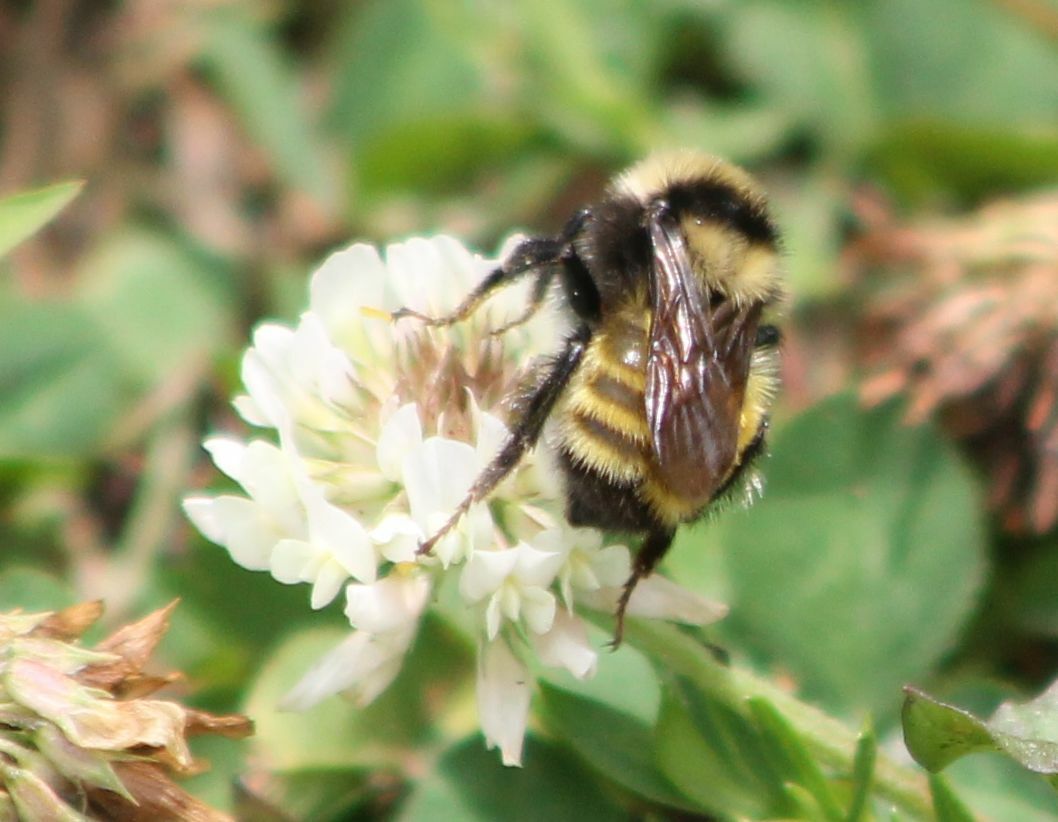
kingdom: Animalia
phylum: Arthropoda
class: Insecta
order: Hymenoptera
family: Apidae
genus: Bombus
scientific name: Bombus borealis
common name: Northern amber bumble bee
